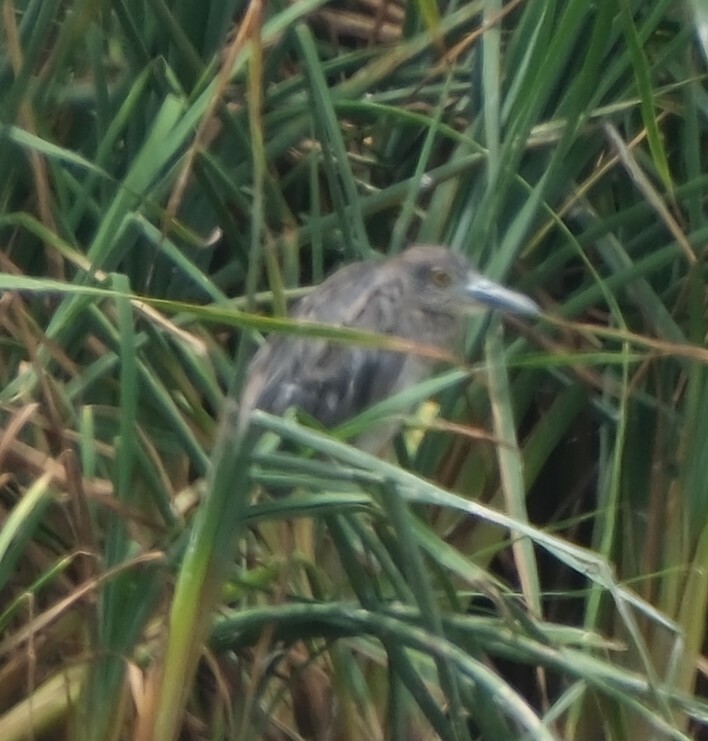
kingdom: Animalia
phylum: Chordata
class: Aves
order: Pelecaniformes
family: Ardeidae
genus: Nyctanassa
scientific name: Nyctanassa violacea
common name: Yellow-crowned night heron
